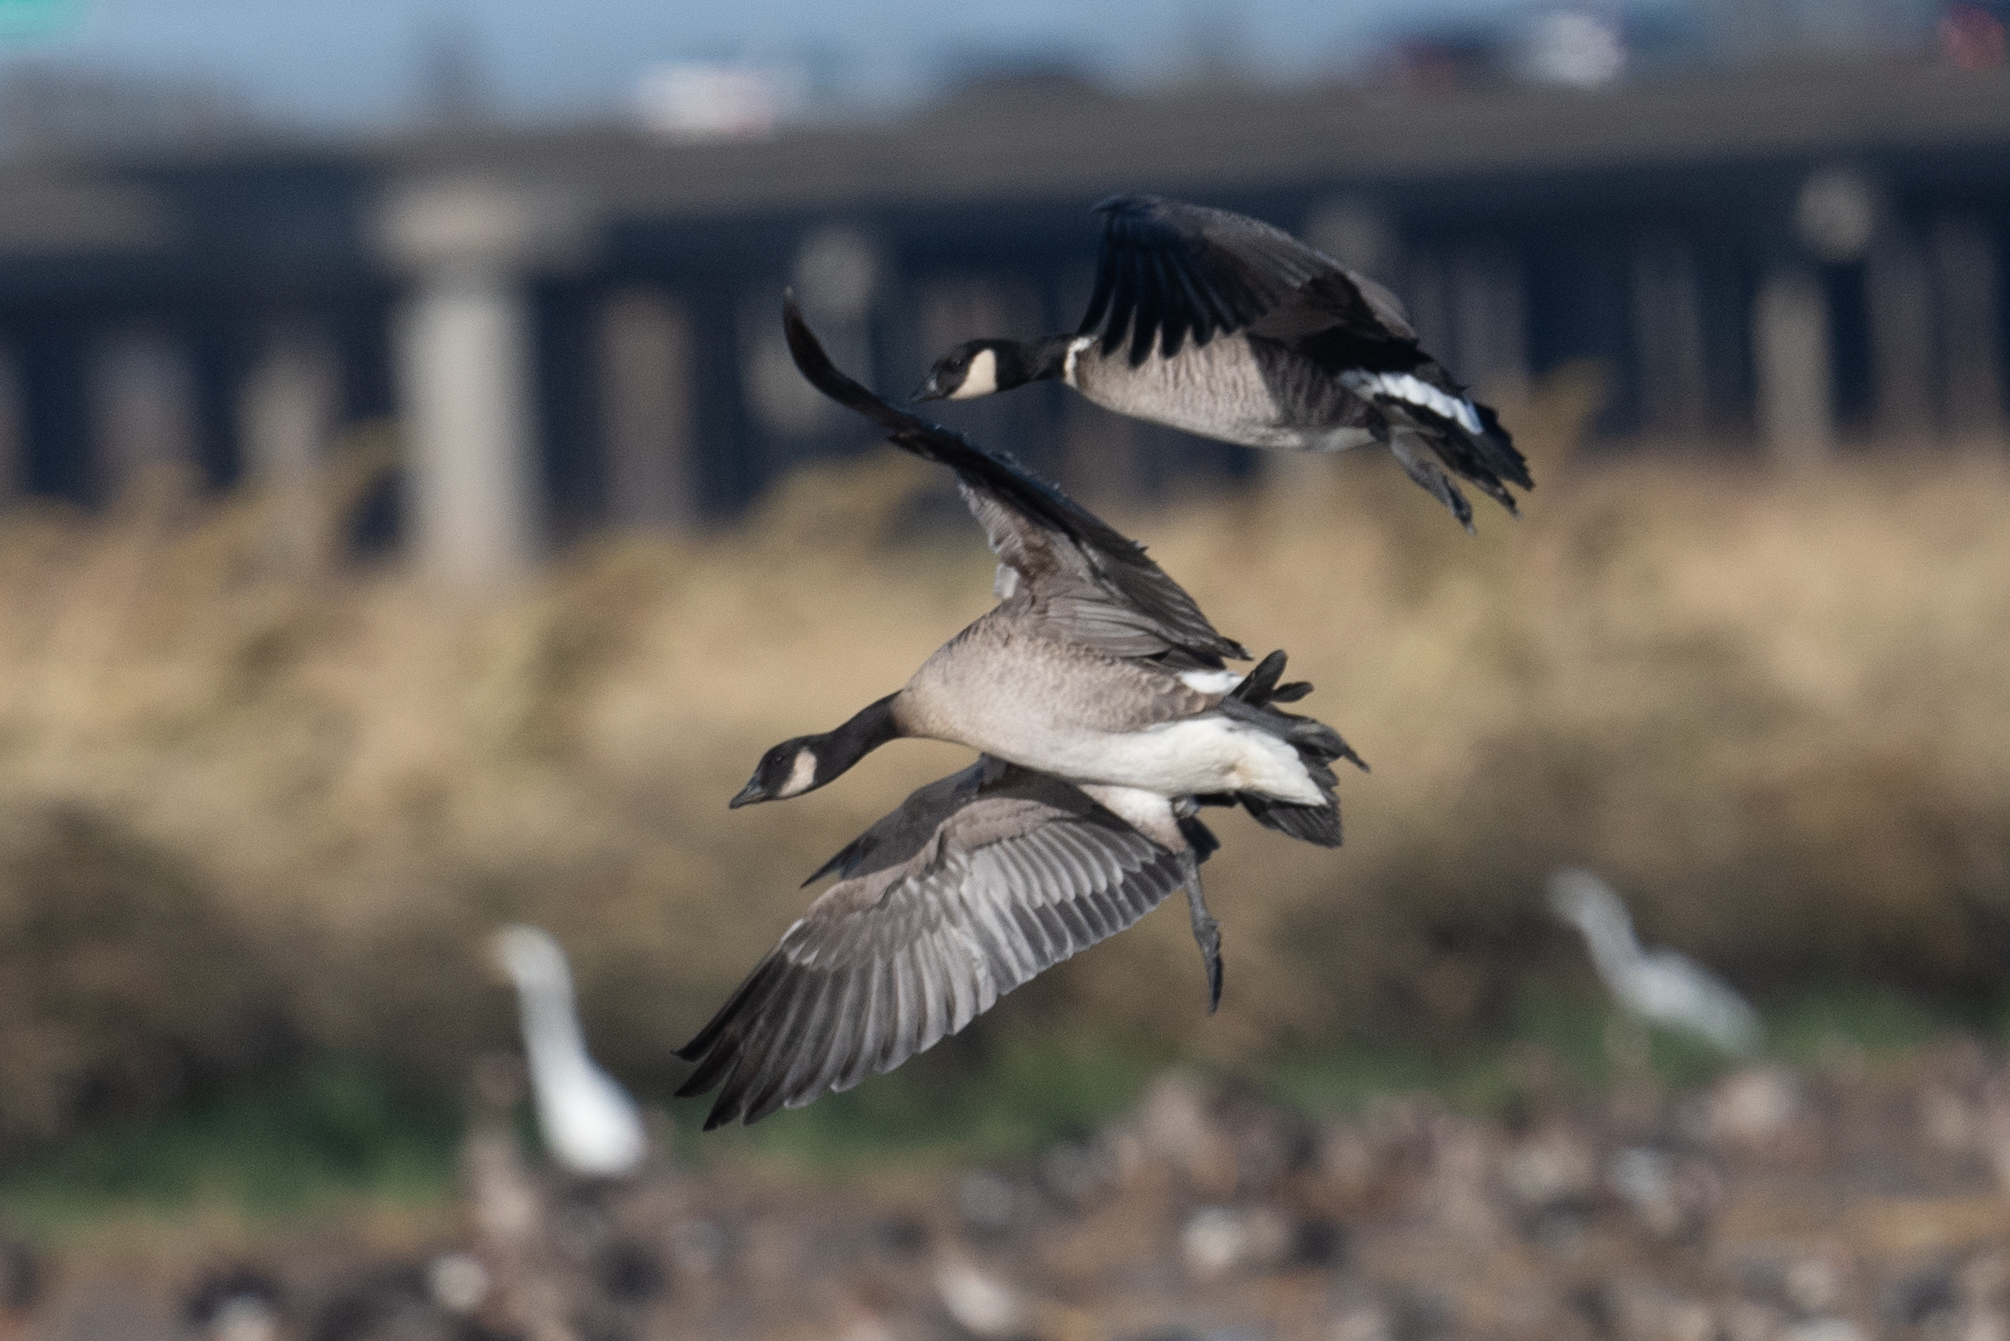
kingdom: Animalia
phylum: Chordata
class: Aves
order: Anseriformes
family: Anatidae
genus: Branta
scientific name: Branta hutchinsii
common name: Cackling goose
